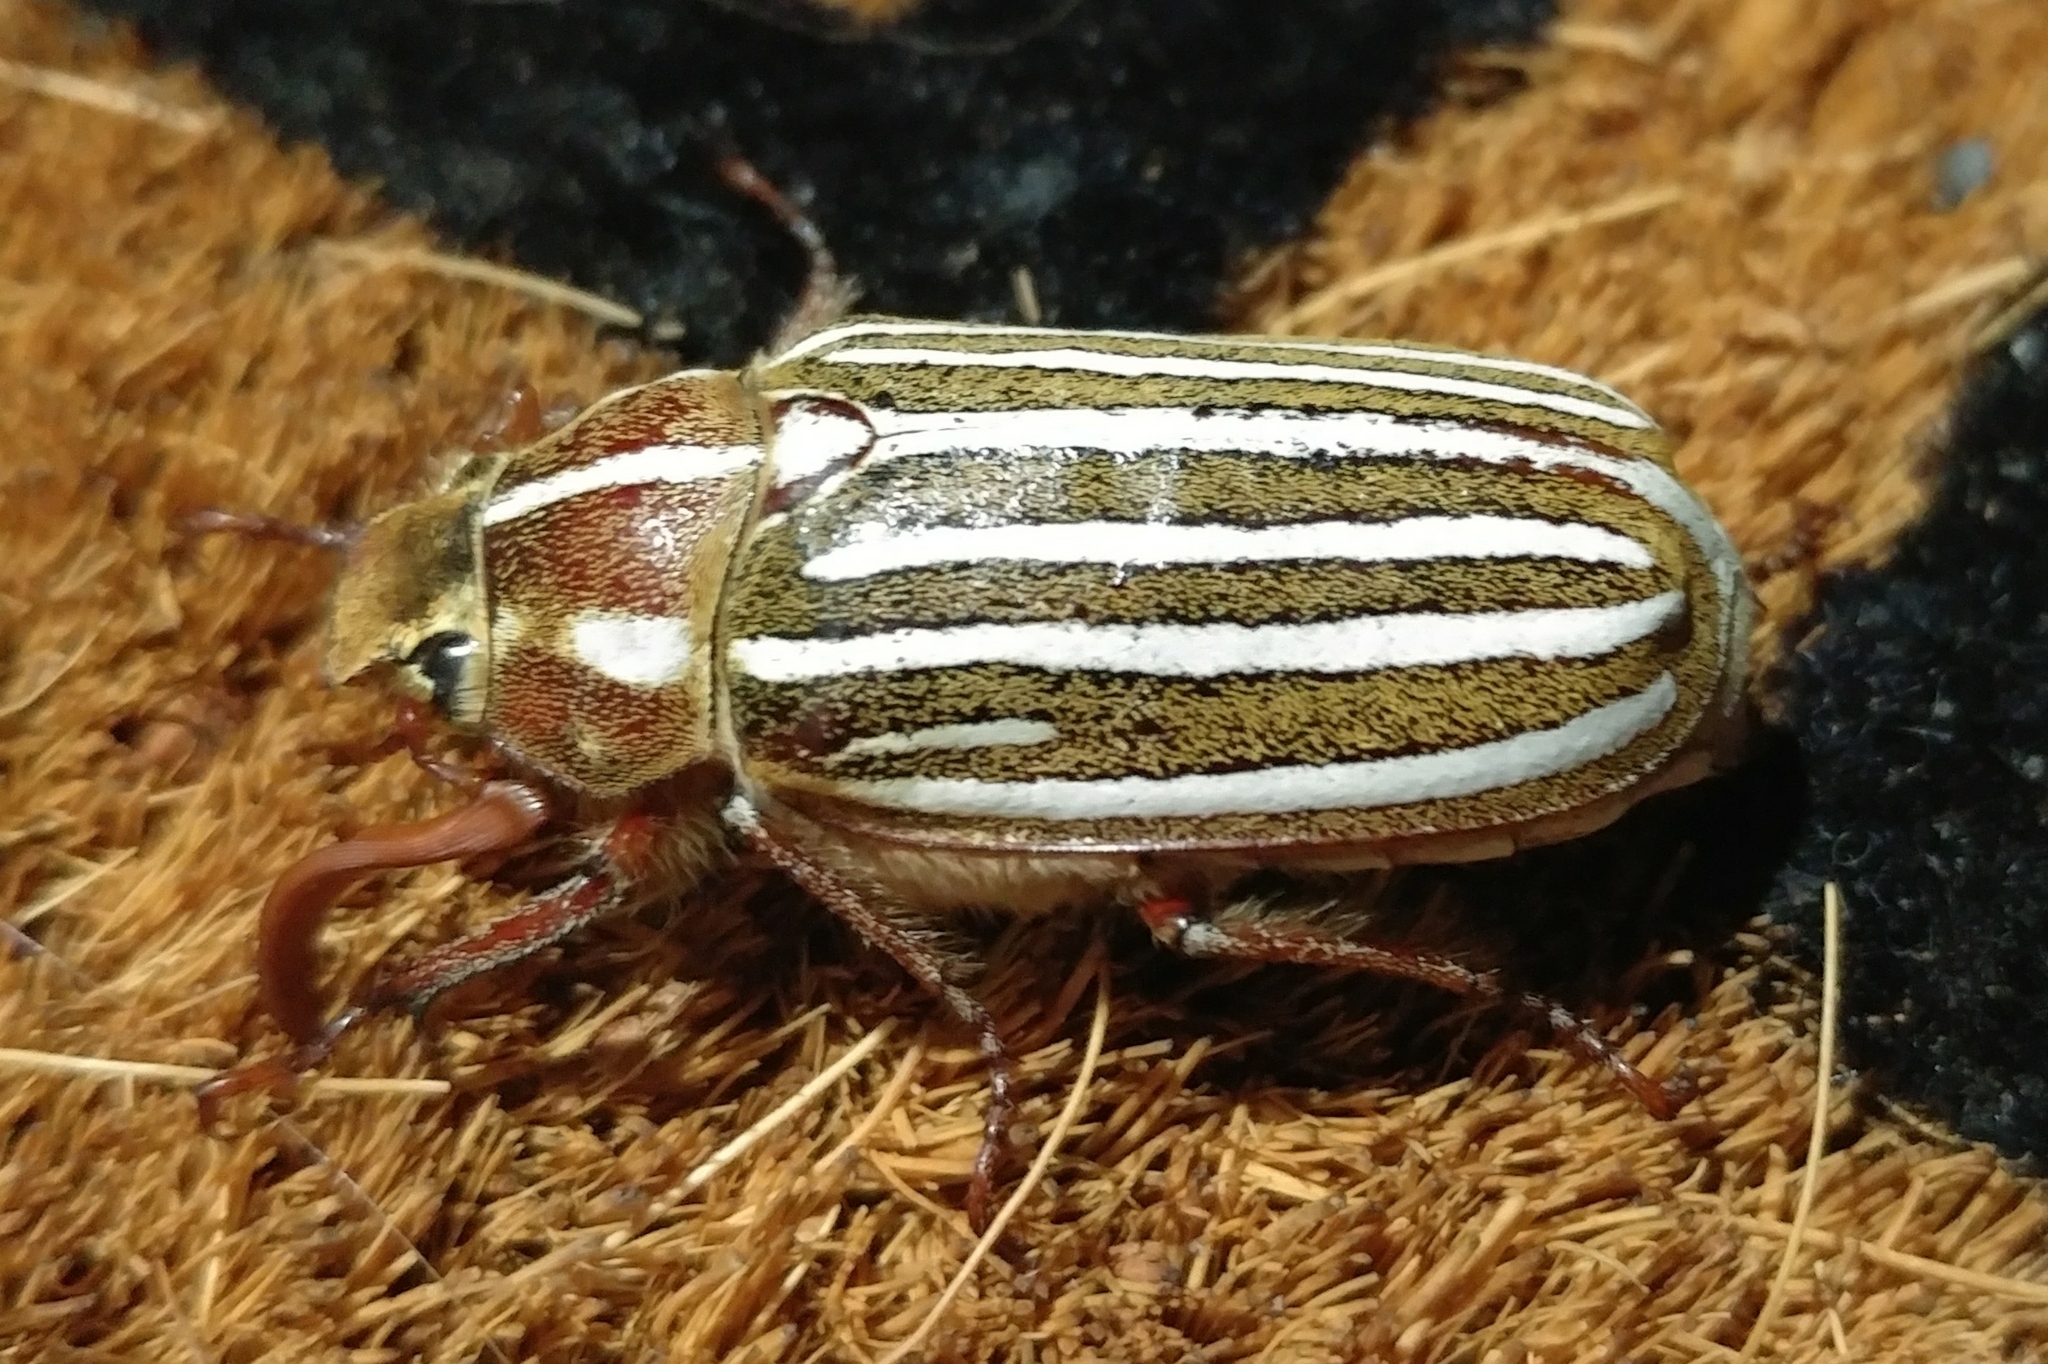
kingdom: Animalia
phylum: Arthropoda
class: Insecta
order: Coleoptera
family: Scarabaeidae
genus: Polyphylla
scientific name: Polyphylla decemlineata
